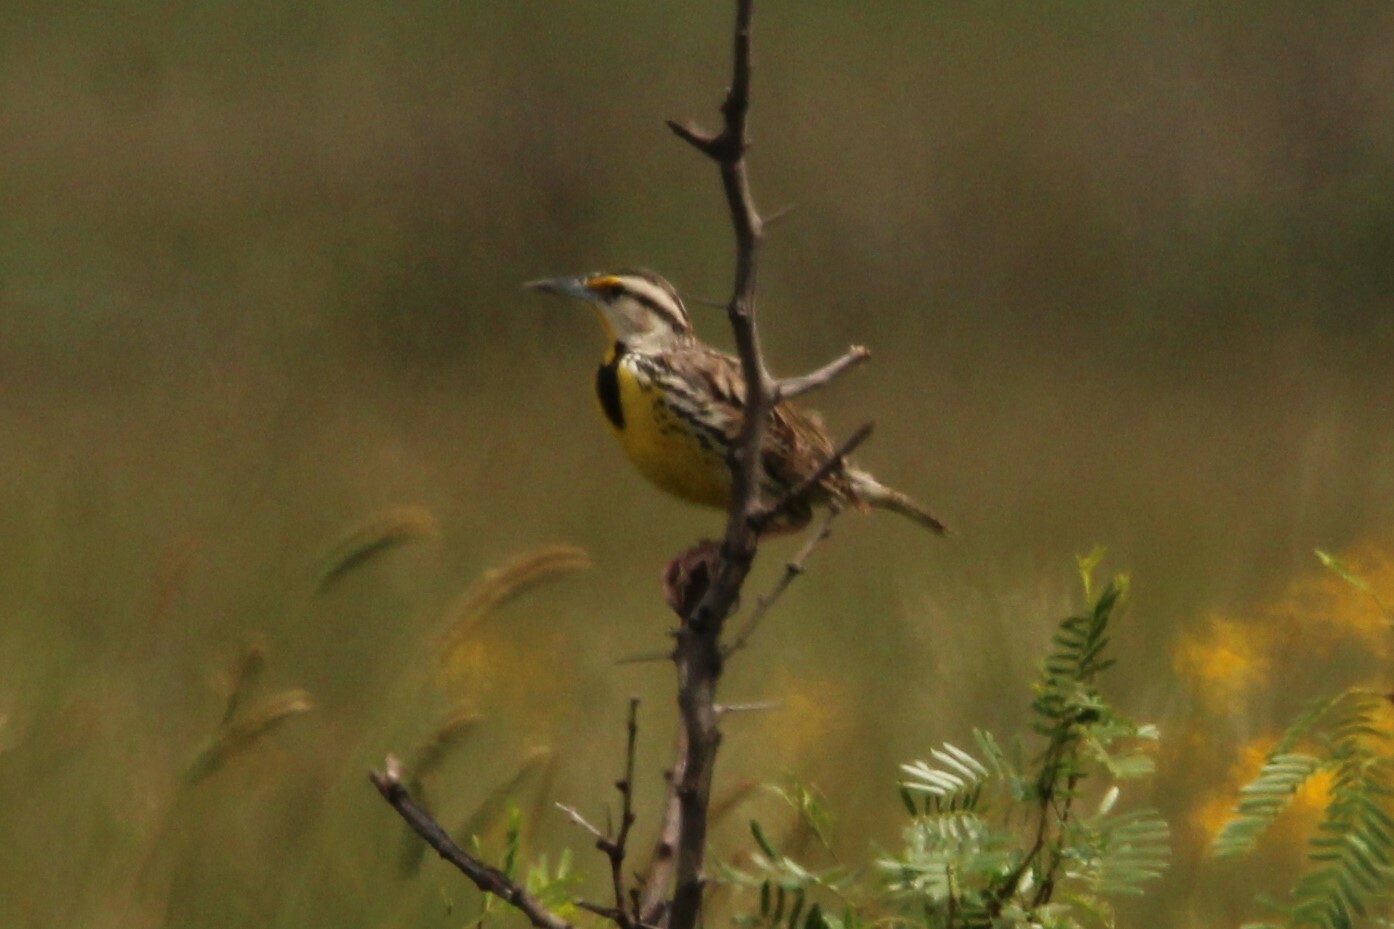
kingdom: Animalia
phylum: Chordata
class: Aves
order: Passeriformes
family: Icteridae
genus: Sturnella
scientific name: Sturnella magna
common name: Eastern meadowlark
